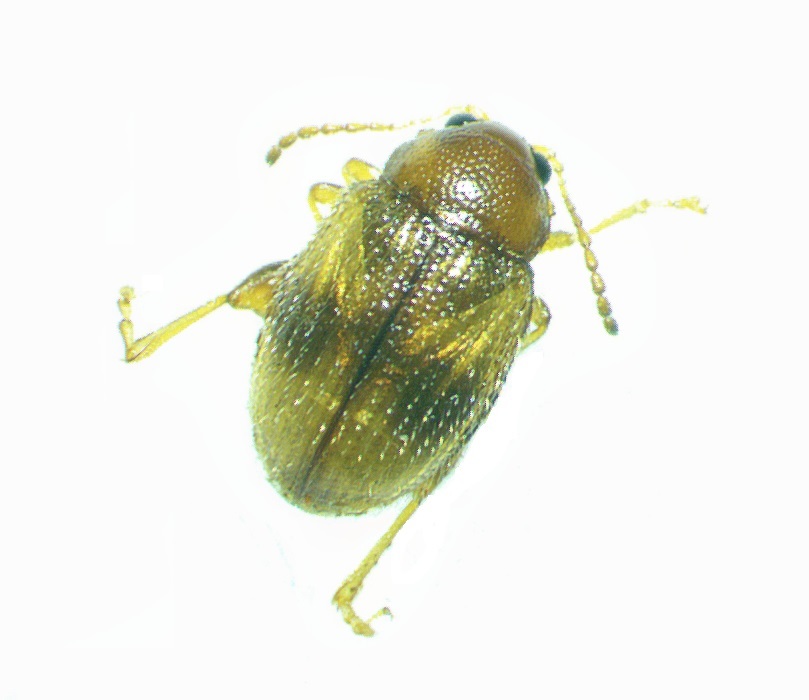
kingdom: Animalia
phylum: Arthropoda
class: Insecta
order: Coleoptera
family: Chrysomelidae
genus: Epitrix
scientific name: Epitrix fasciata
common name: Leaf beetle
